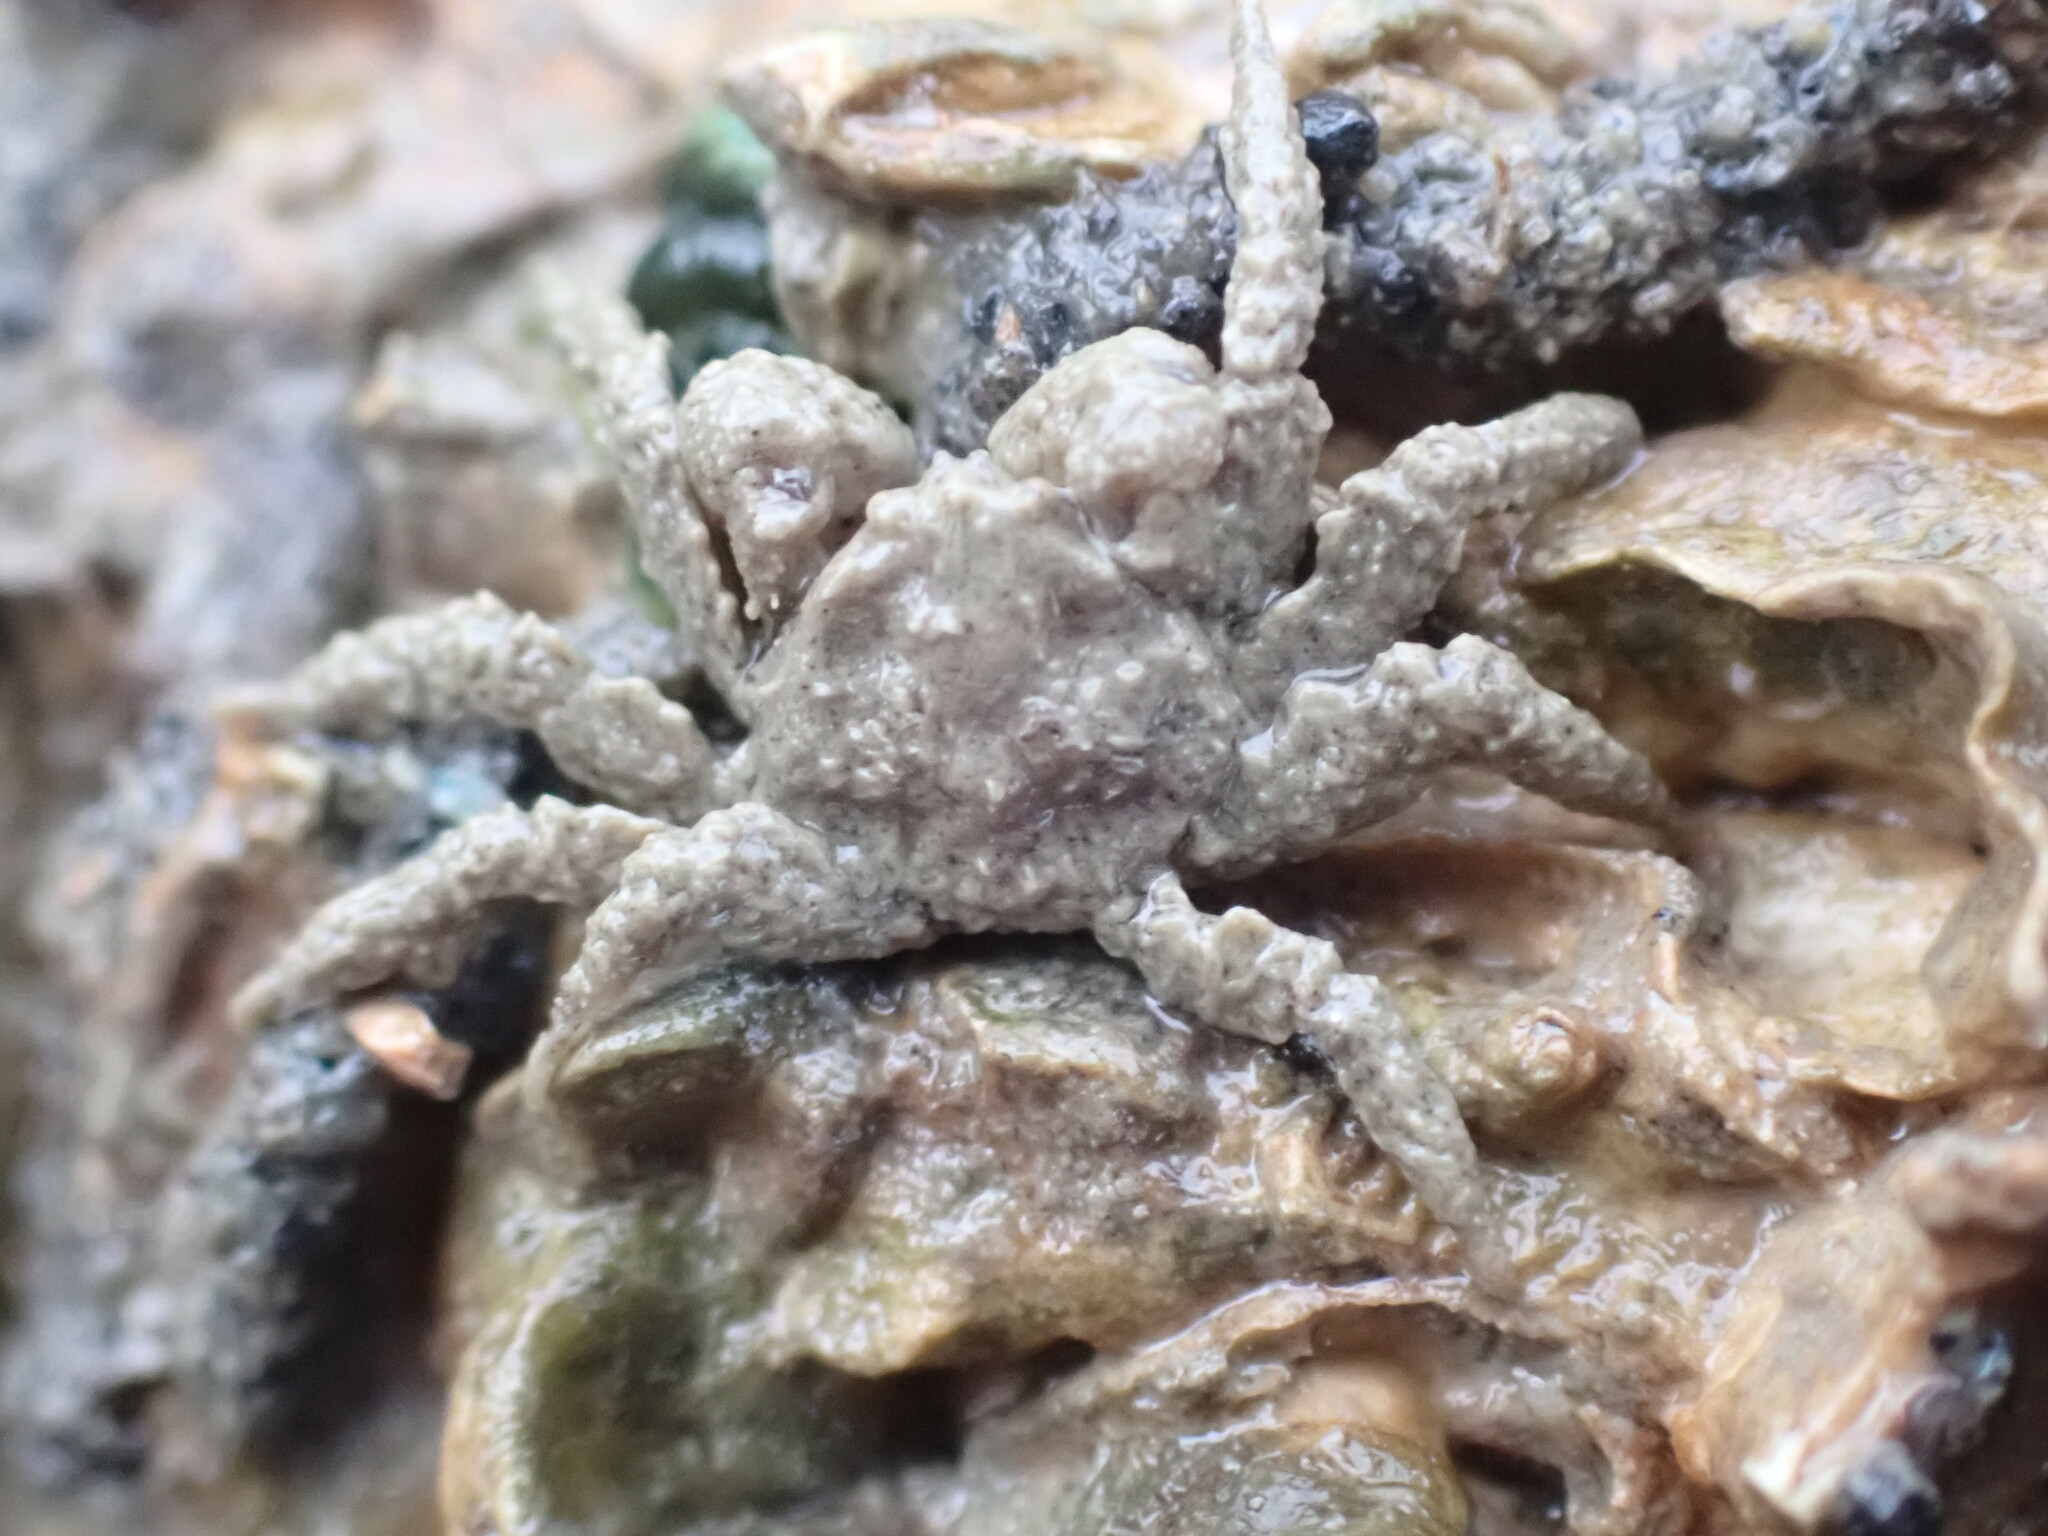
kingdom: Animalia
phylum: Arthropoda
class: Malacostraca
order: Decapoda
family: Hymenosomatidae
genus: Neohymenicus
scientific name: Neohymenicus pubescens
